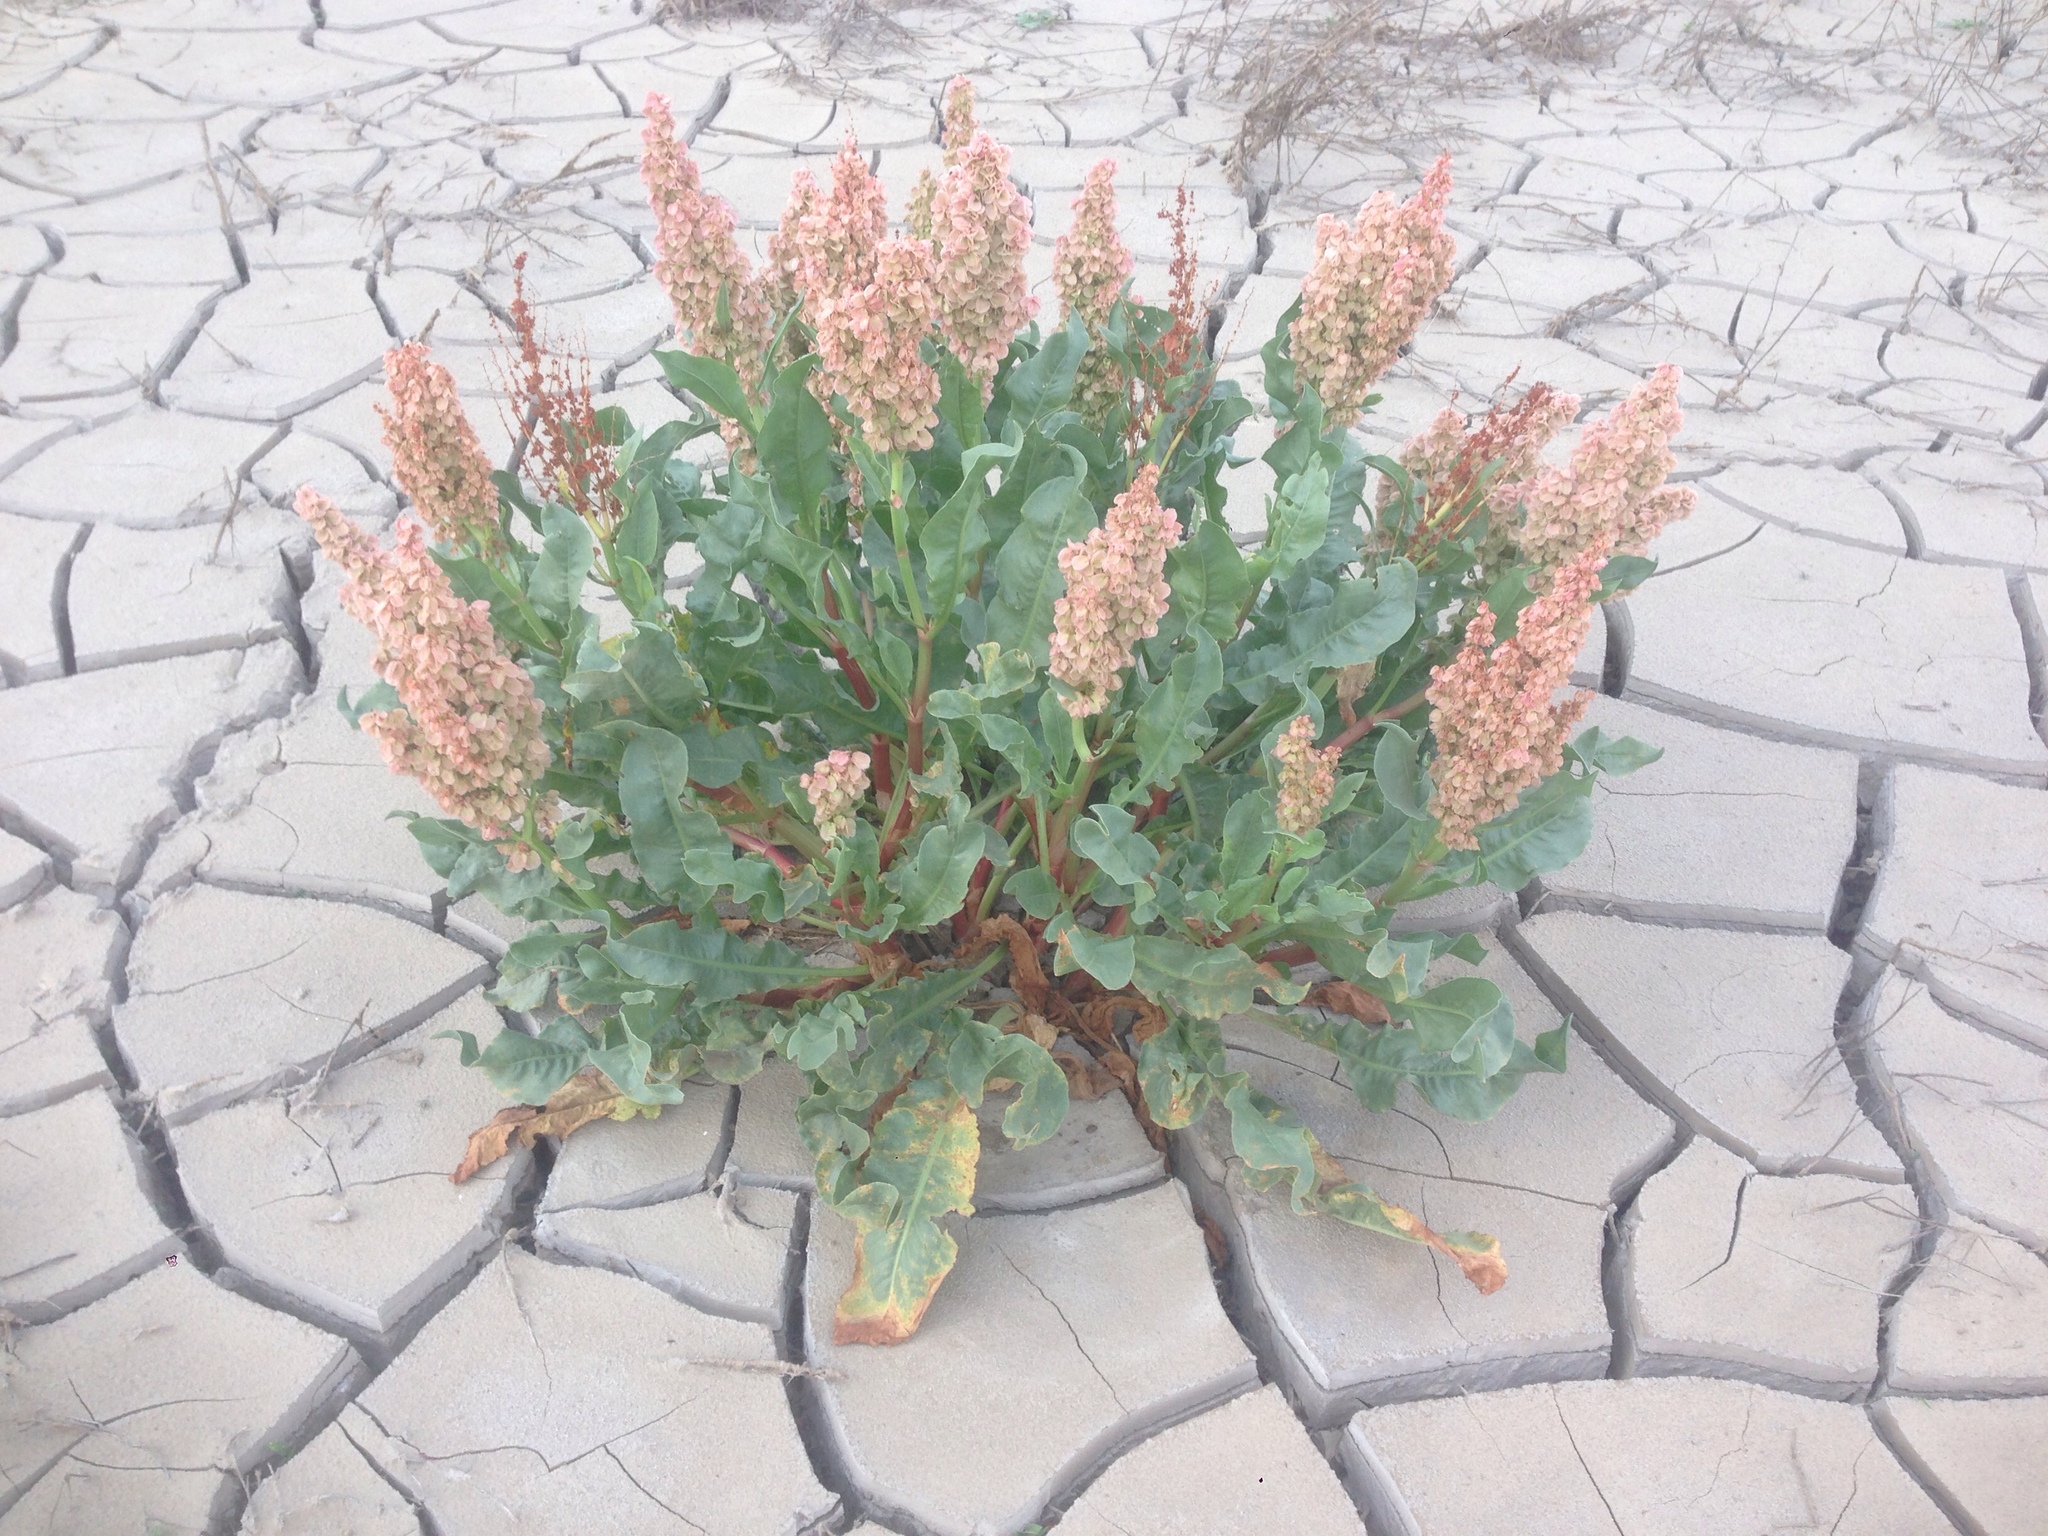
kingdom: Plantae
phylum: Tracheophyta
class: Magnoliopsida
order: Caryophyllales
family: Polygonaceae
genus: Rumex
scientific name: Rumex hymenosepalus
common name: Ganagra
